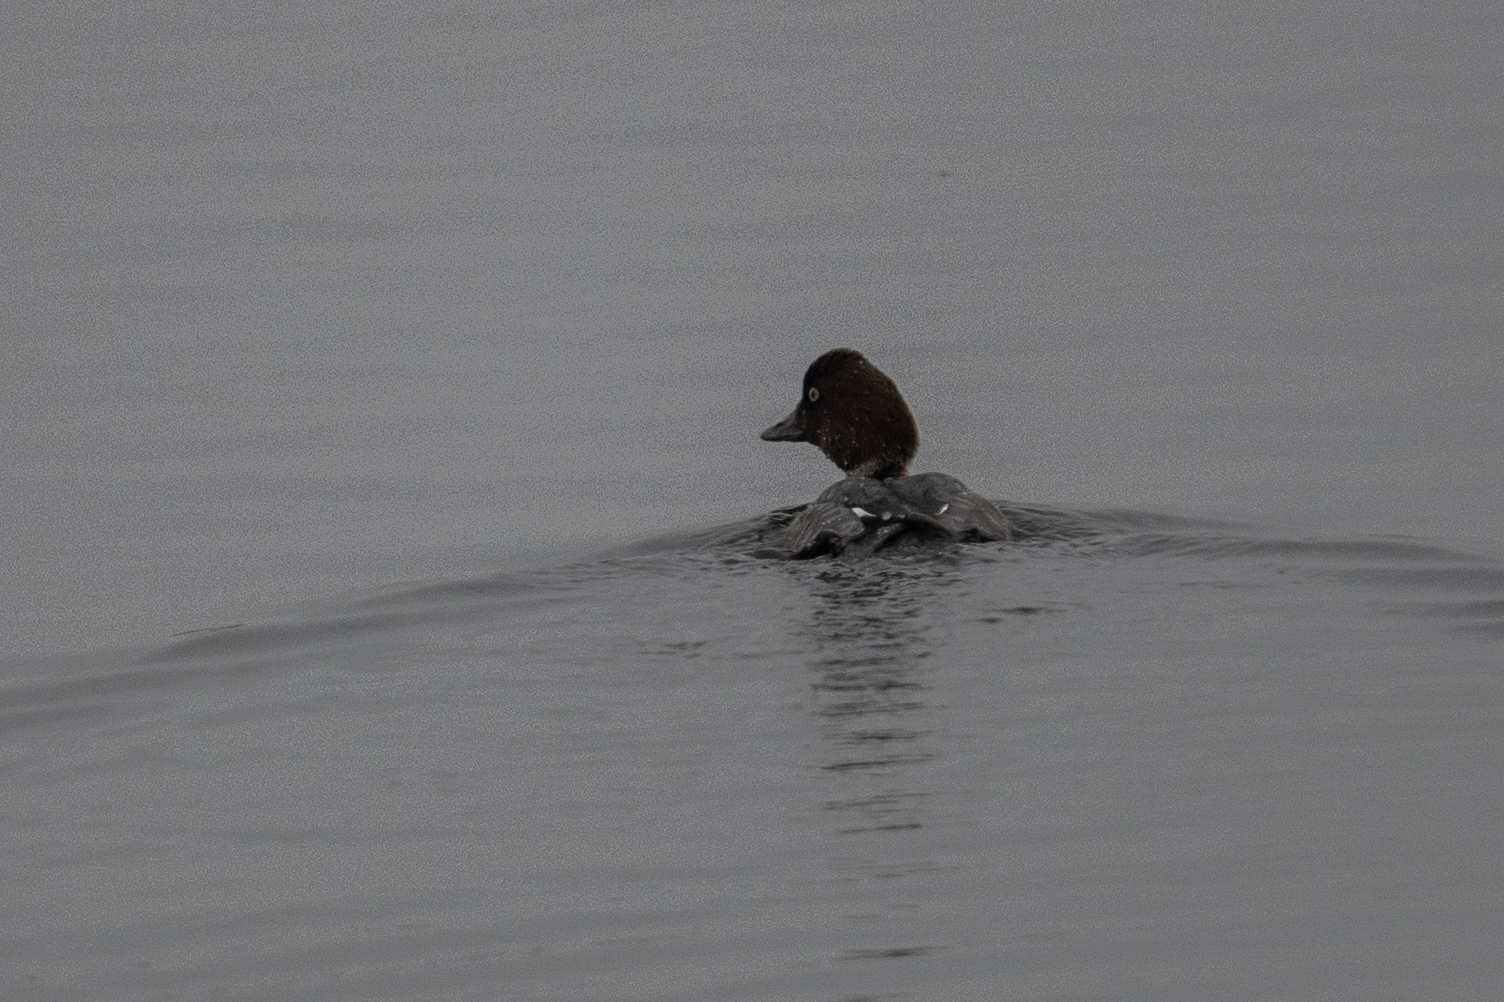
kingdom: Animalia
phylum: Chordata
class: Aves
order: Anseriformes
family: Anatidae
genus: Bucephala
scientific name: Bucephala islandica
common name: Barrow's goldeneye
